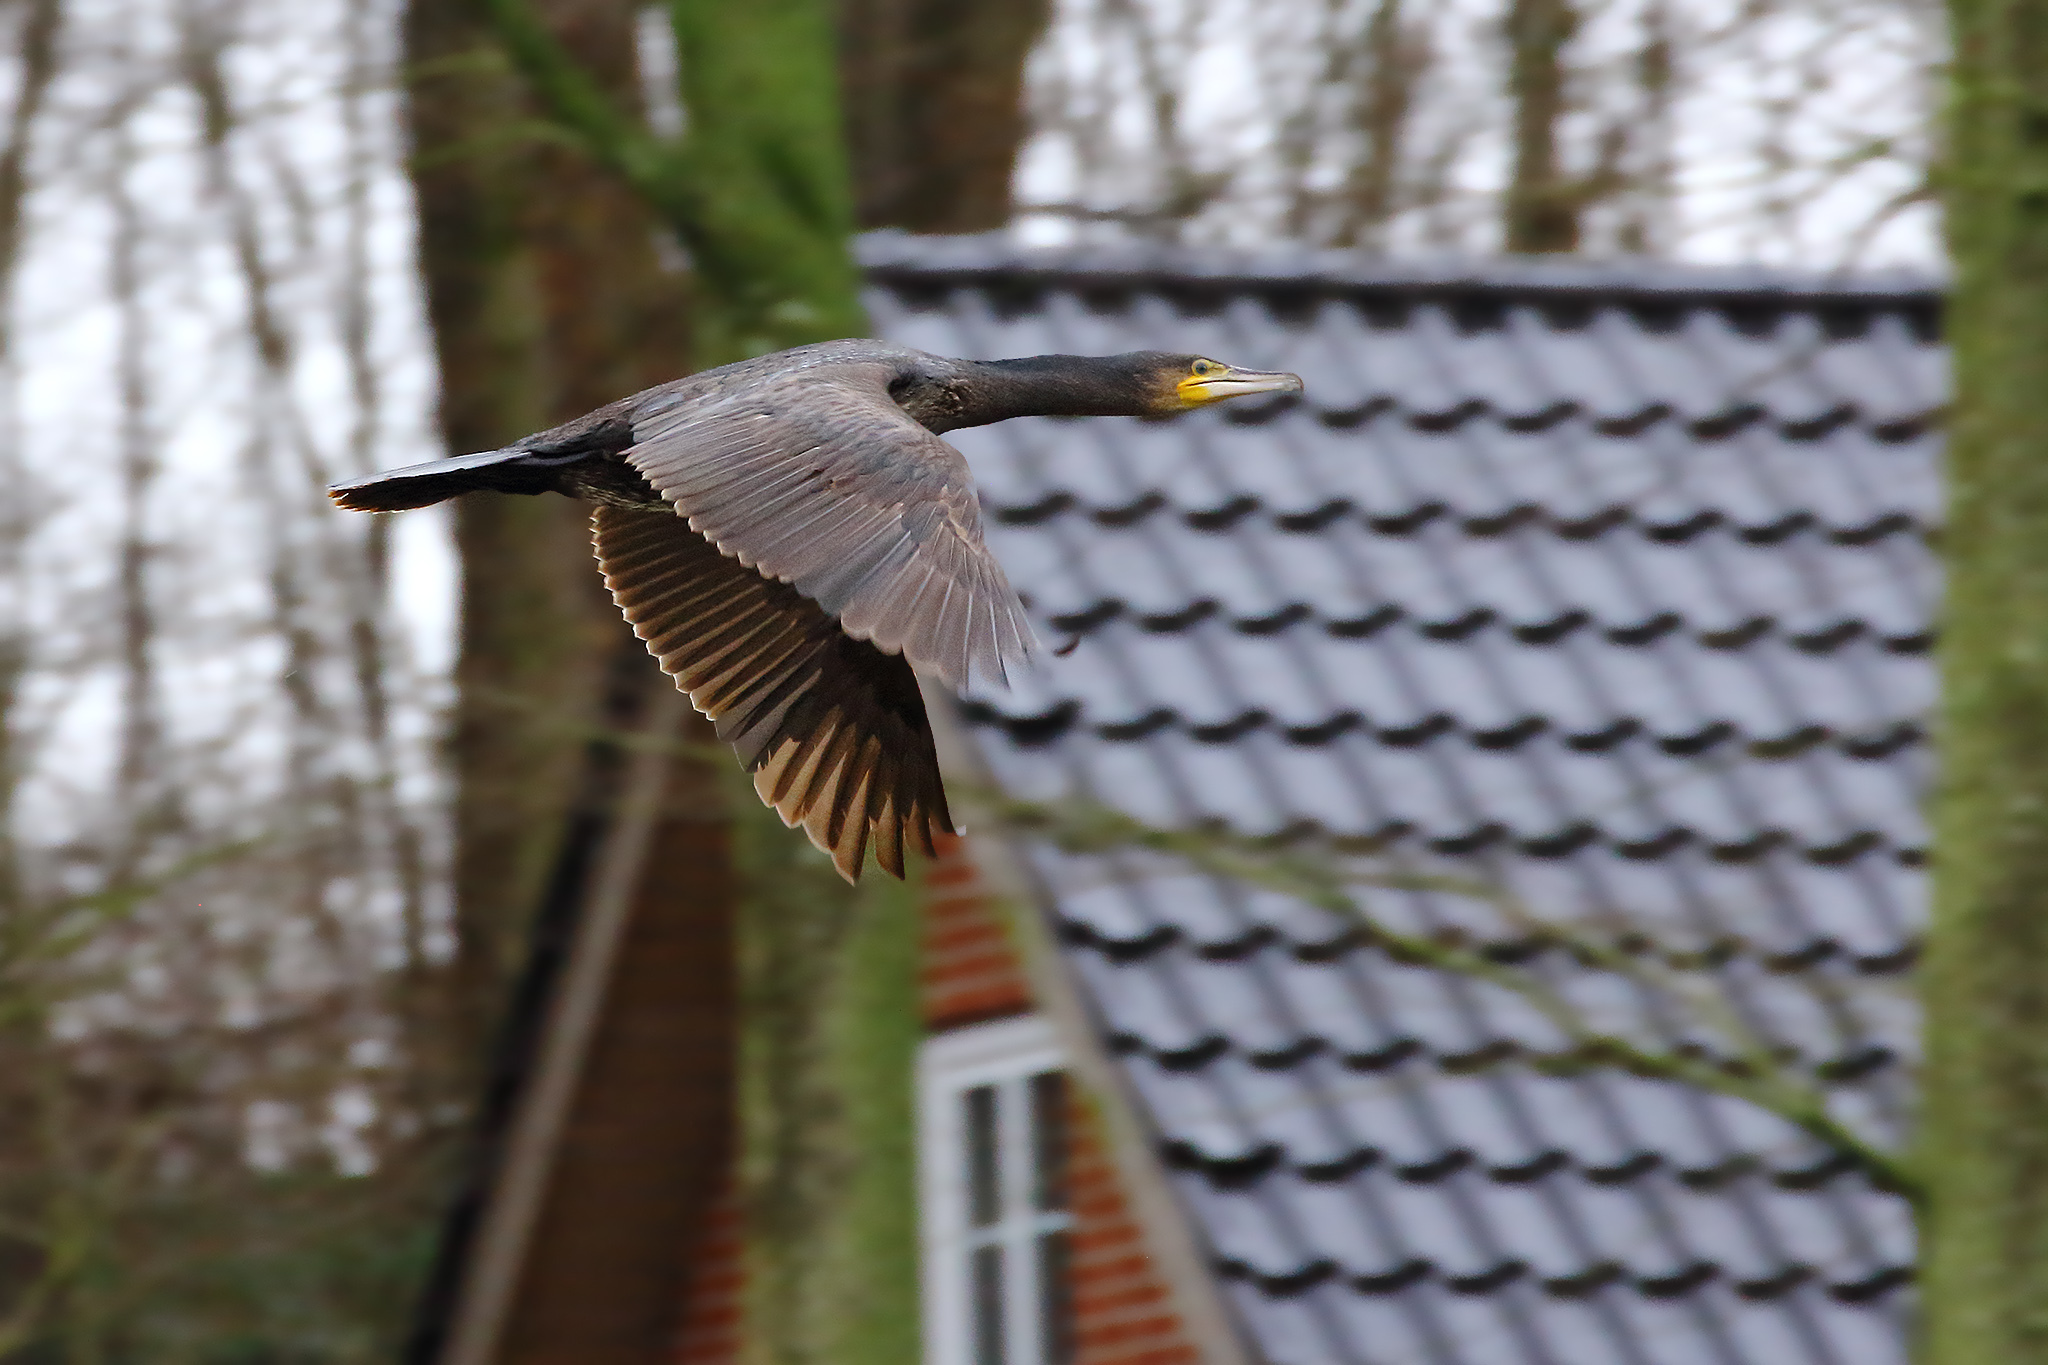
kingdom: Animalia
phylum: Chordata
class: Aves
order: Suliformes
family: Phalacrocoracidae
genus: Phalacrocorax
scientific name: Phalacrocorax carbo
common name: Great cormorant
